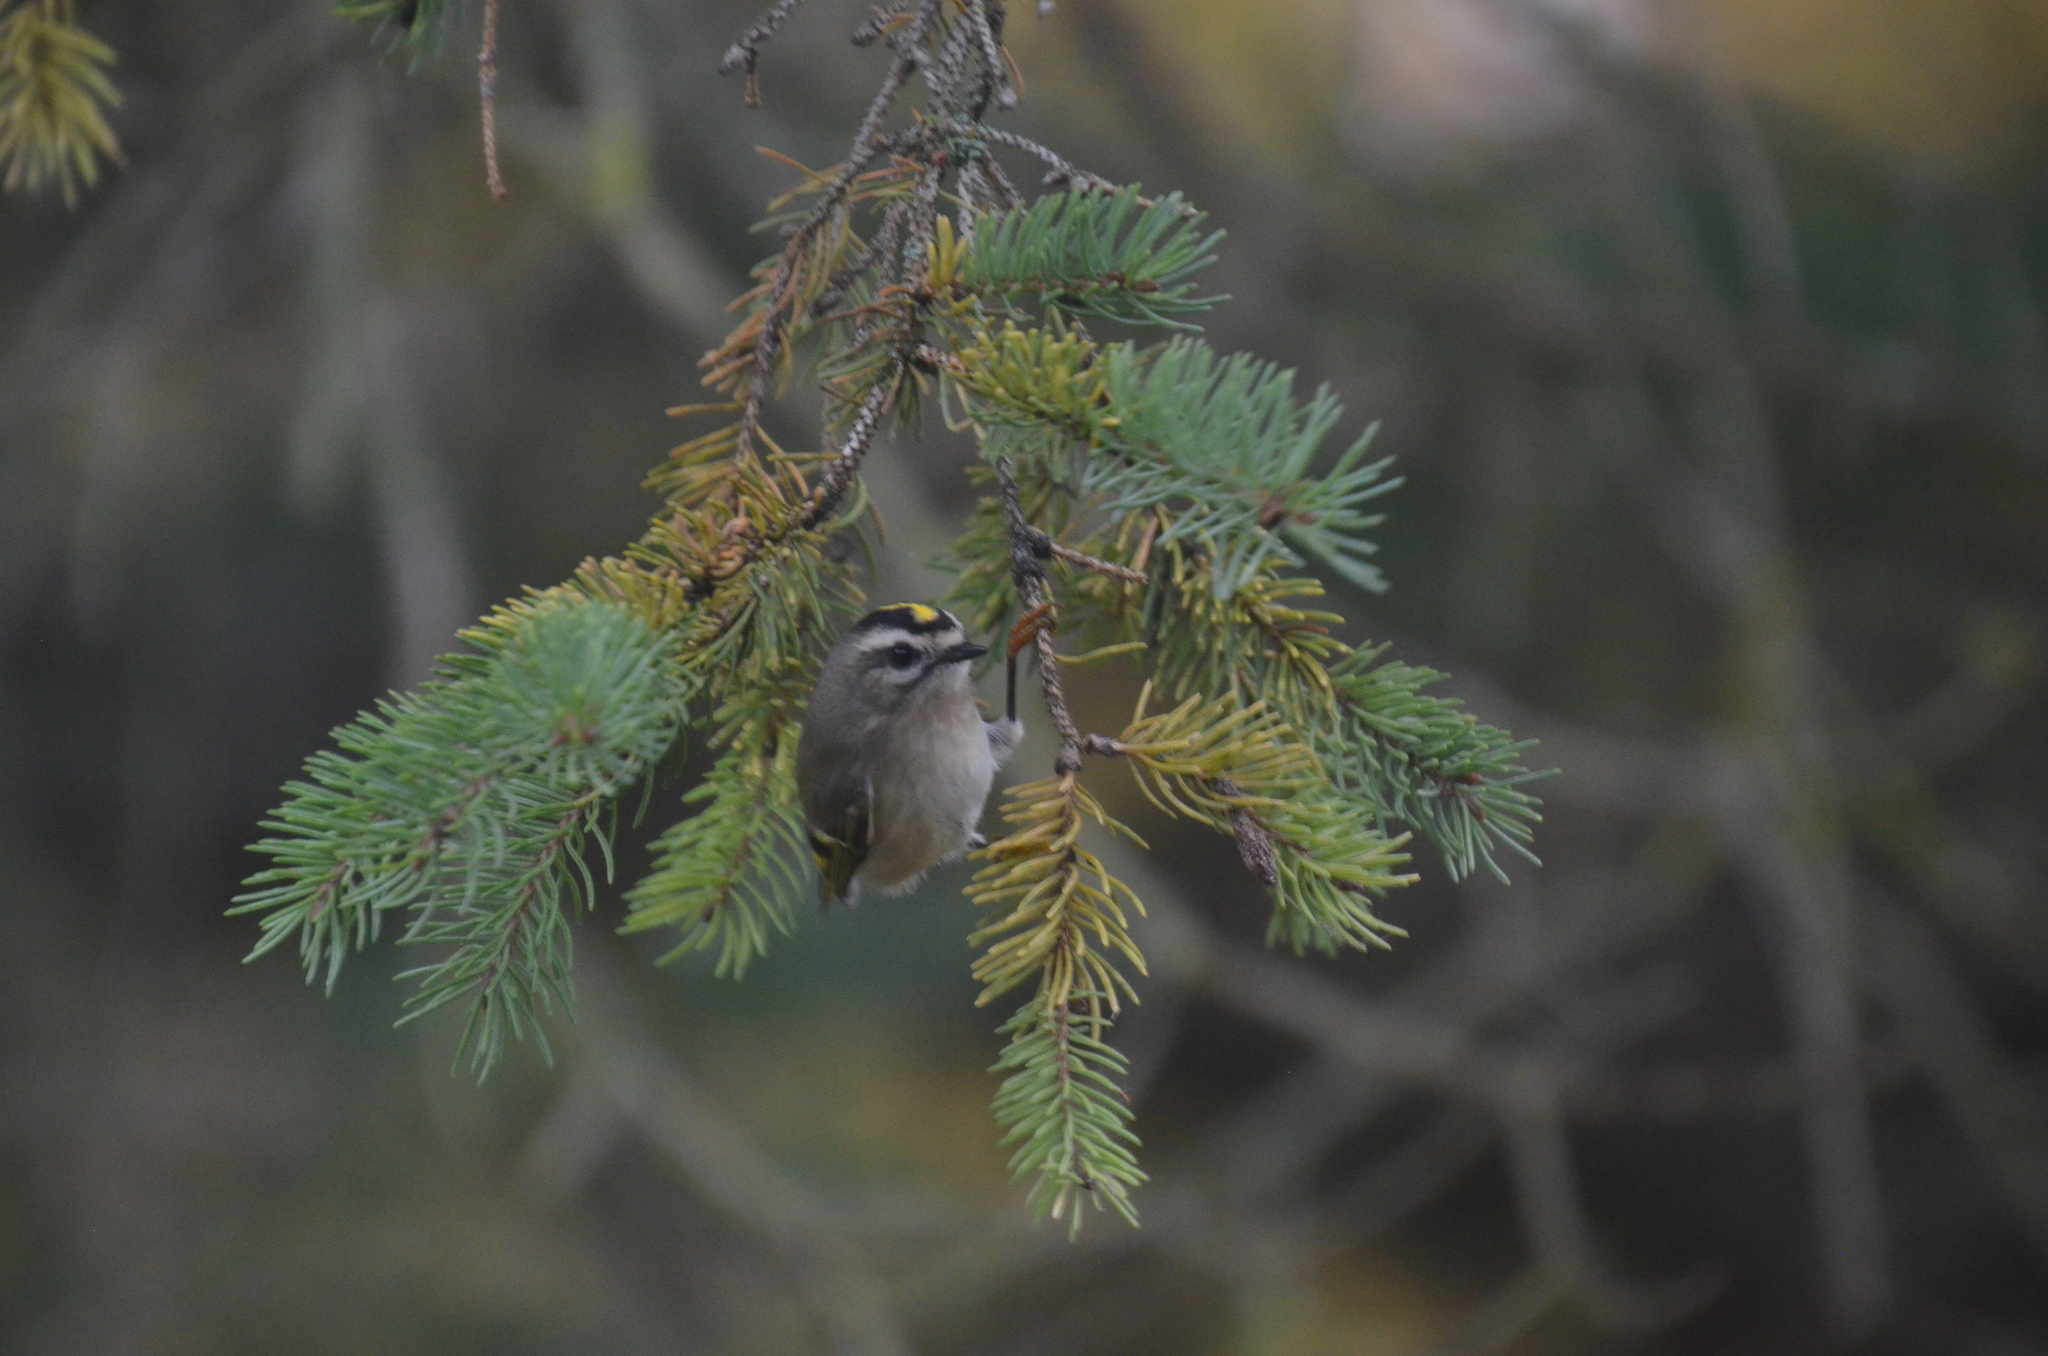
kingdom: Animalia
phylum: Chordata
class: Aves
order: Passeriformes
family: Regulidae
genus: Regulus
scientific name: Regulus satrapa
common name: Golden-crowned kinglet
